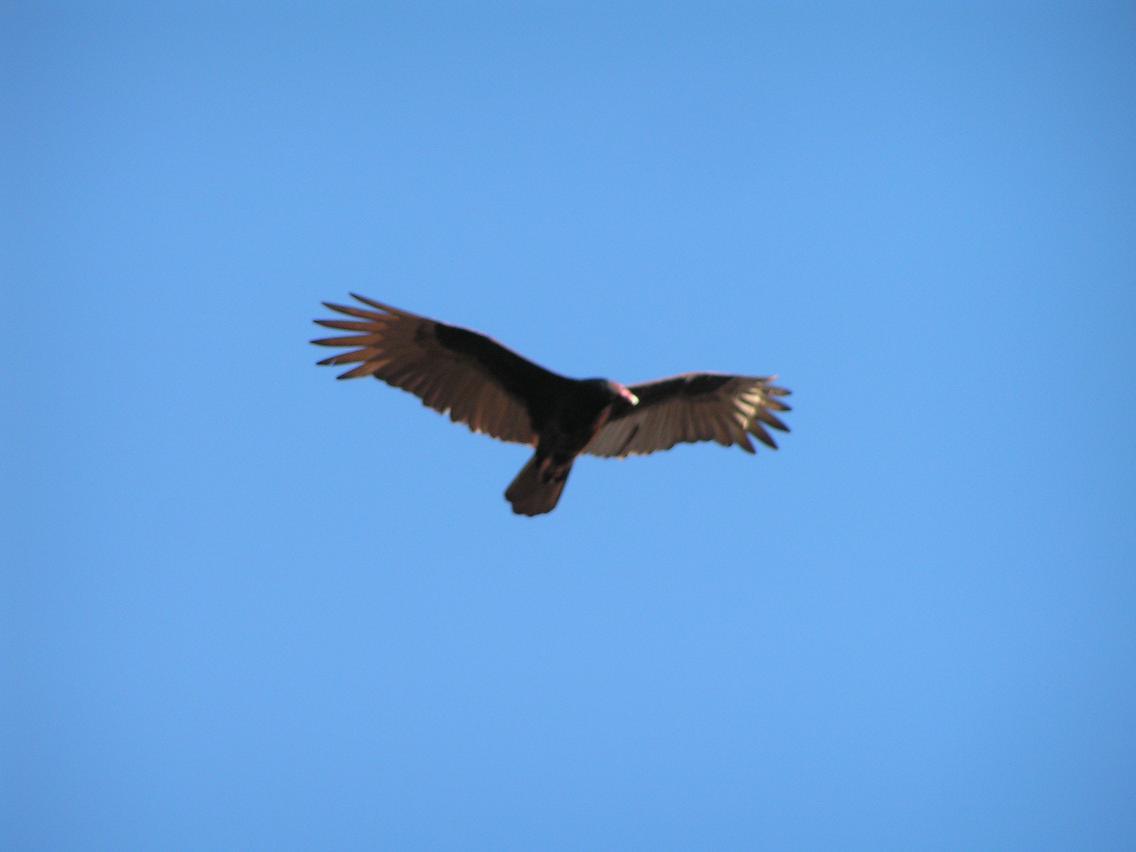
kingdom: Animalia
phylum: Chordata
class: Aves
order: Accipitriformes
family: Cathartidae
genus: Cathartes
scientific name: Cathartes aura
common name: Turkey vulture
